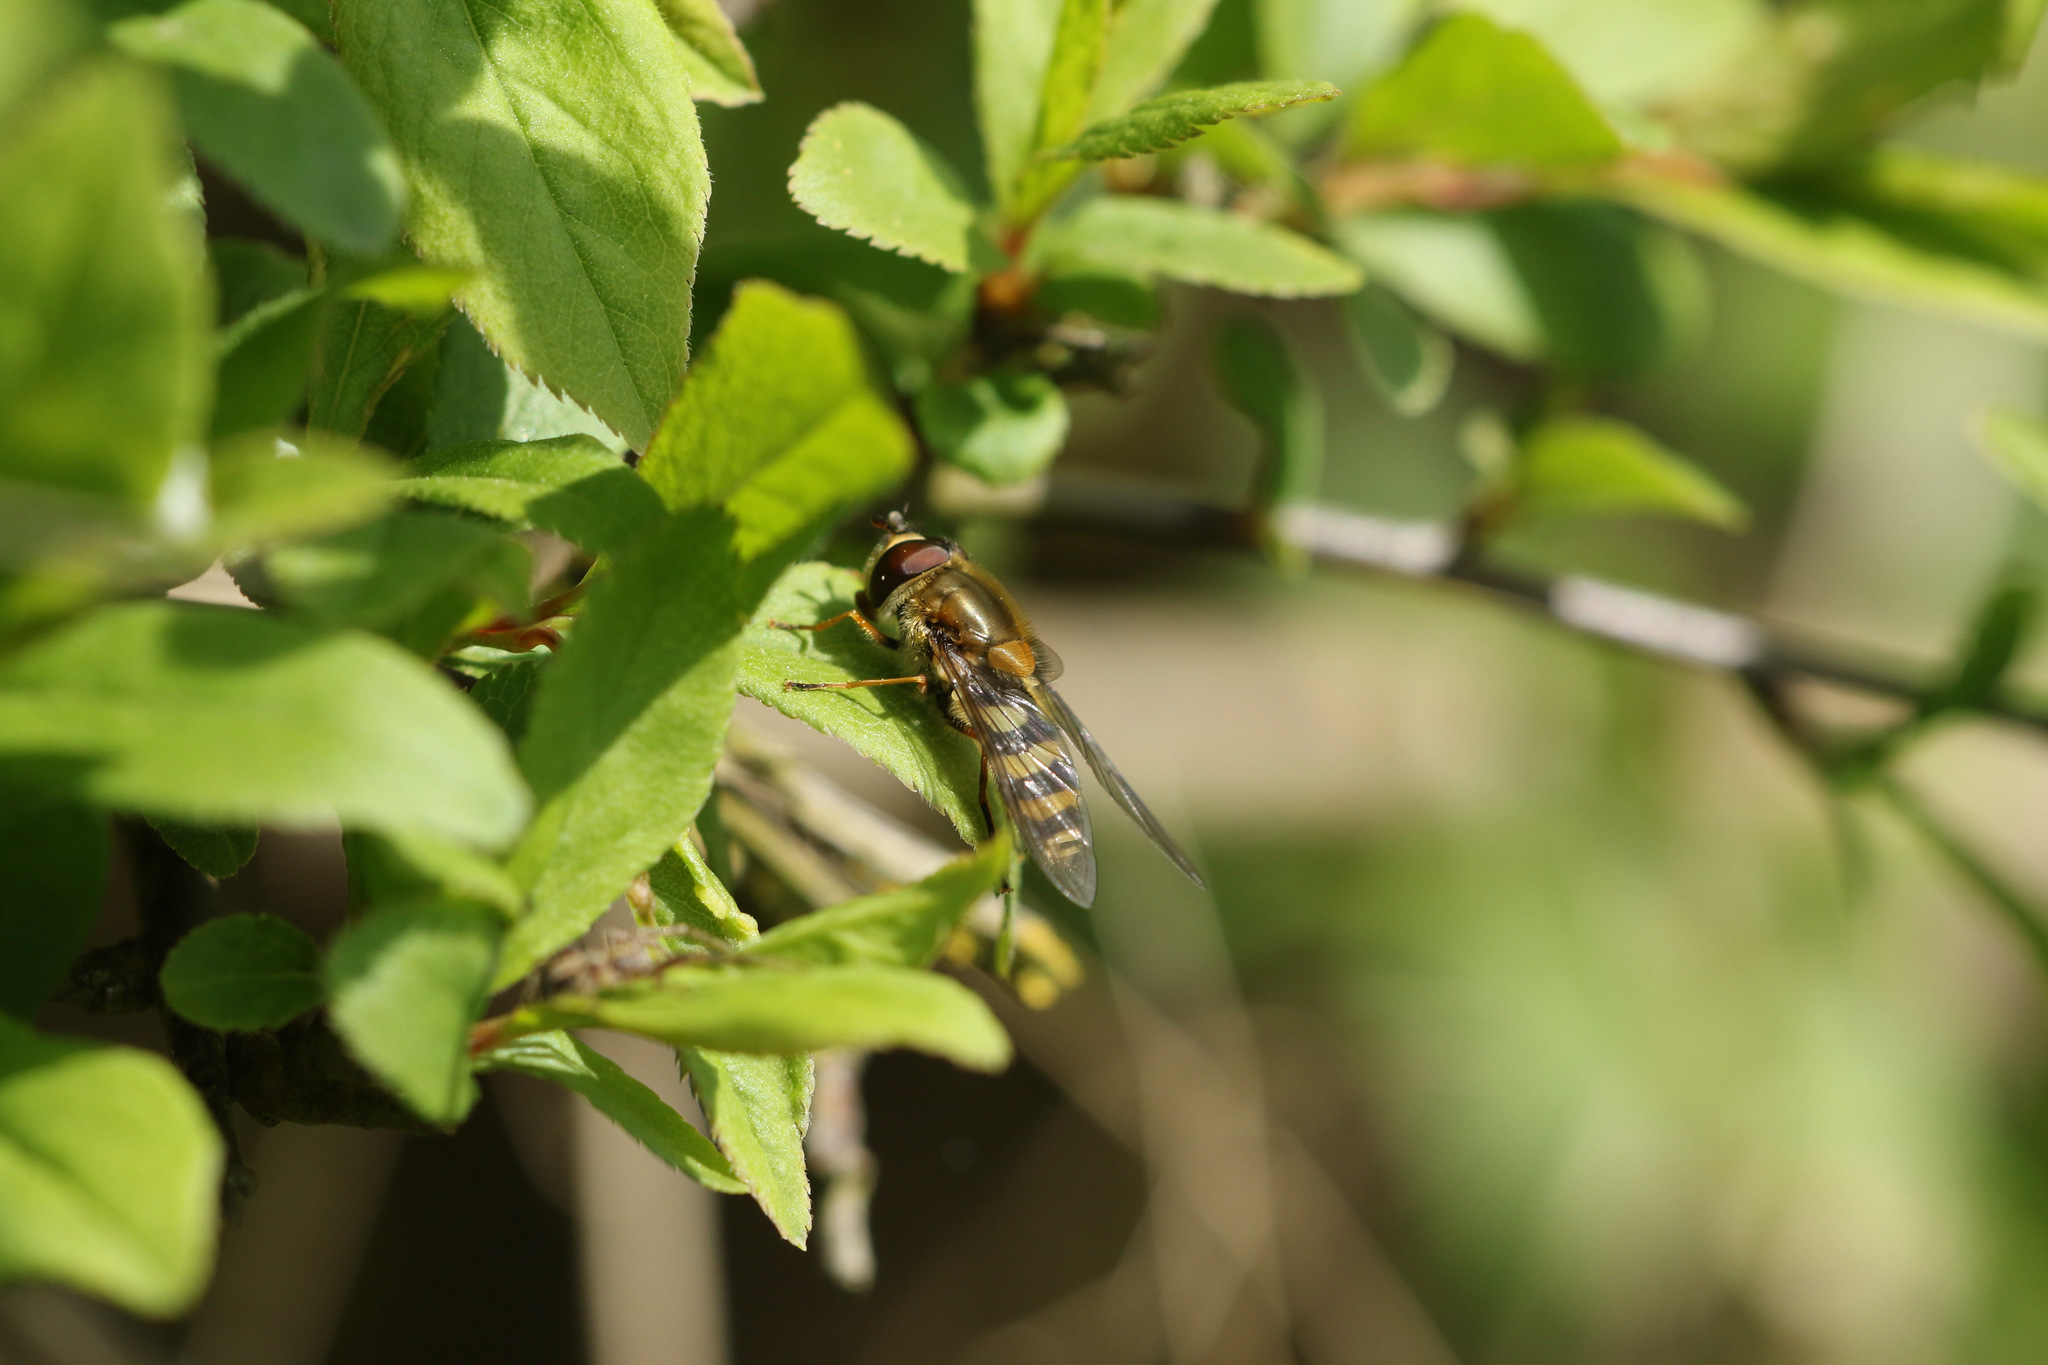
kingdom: Animalia
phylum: Arthropoda
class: Insecta
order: Diptera
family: Syrphidae
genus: Syrphus
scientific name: Syrphus
